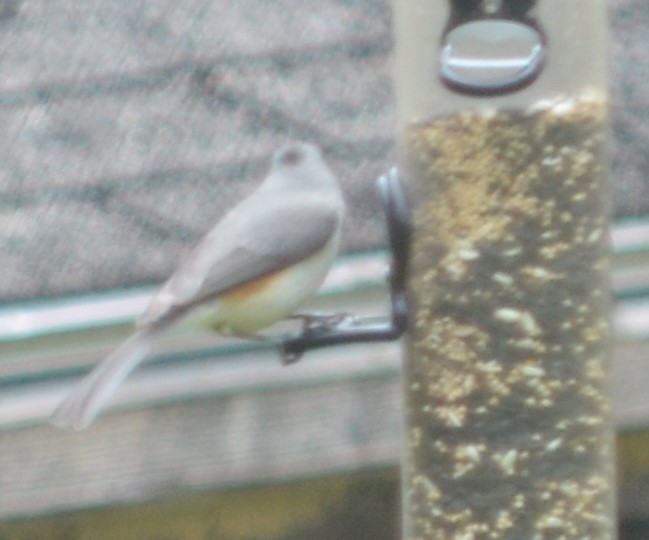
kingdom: Animalia
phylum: Chordata
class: Aves
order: Passeriformes
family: Paridae
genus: Baeolophus
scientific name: Baeolophus bicolor
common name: Tufted titmouse
